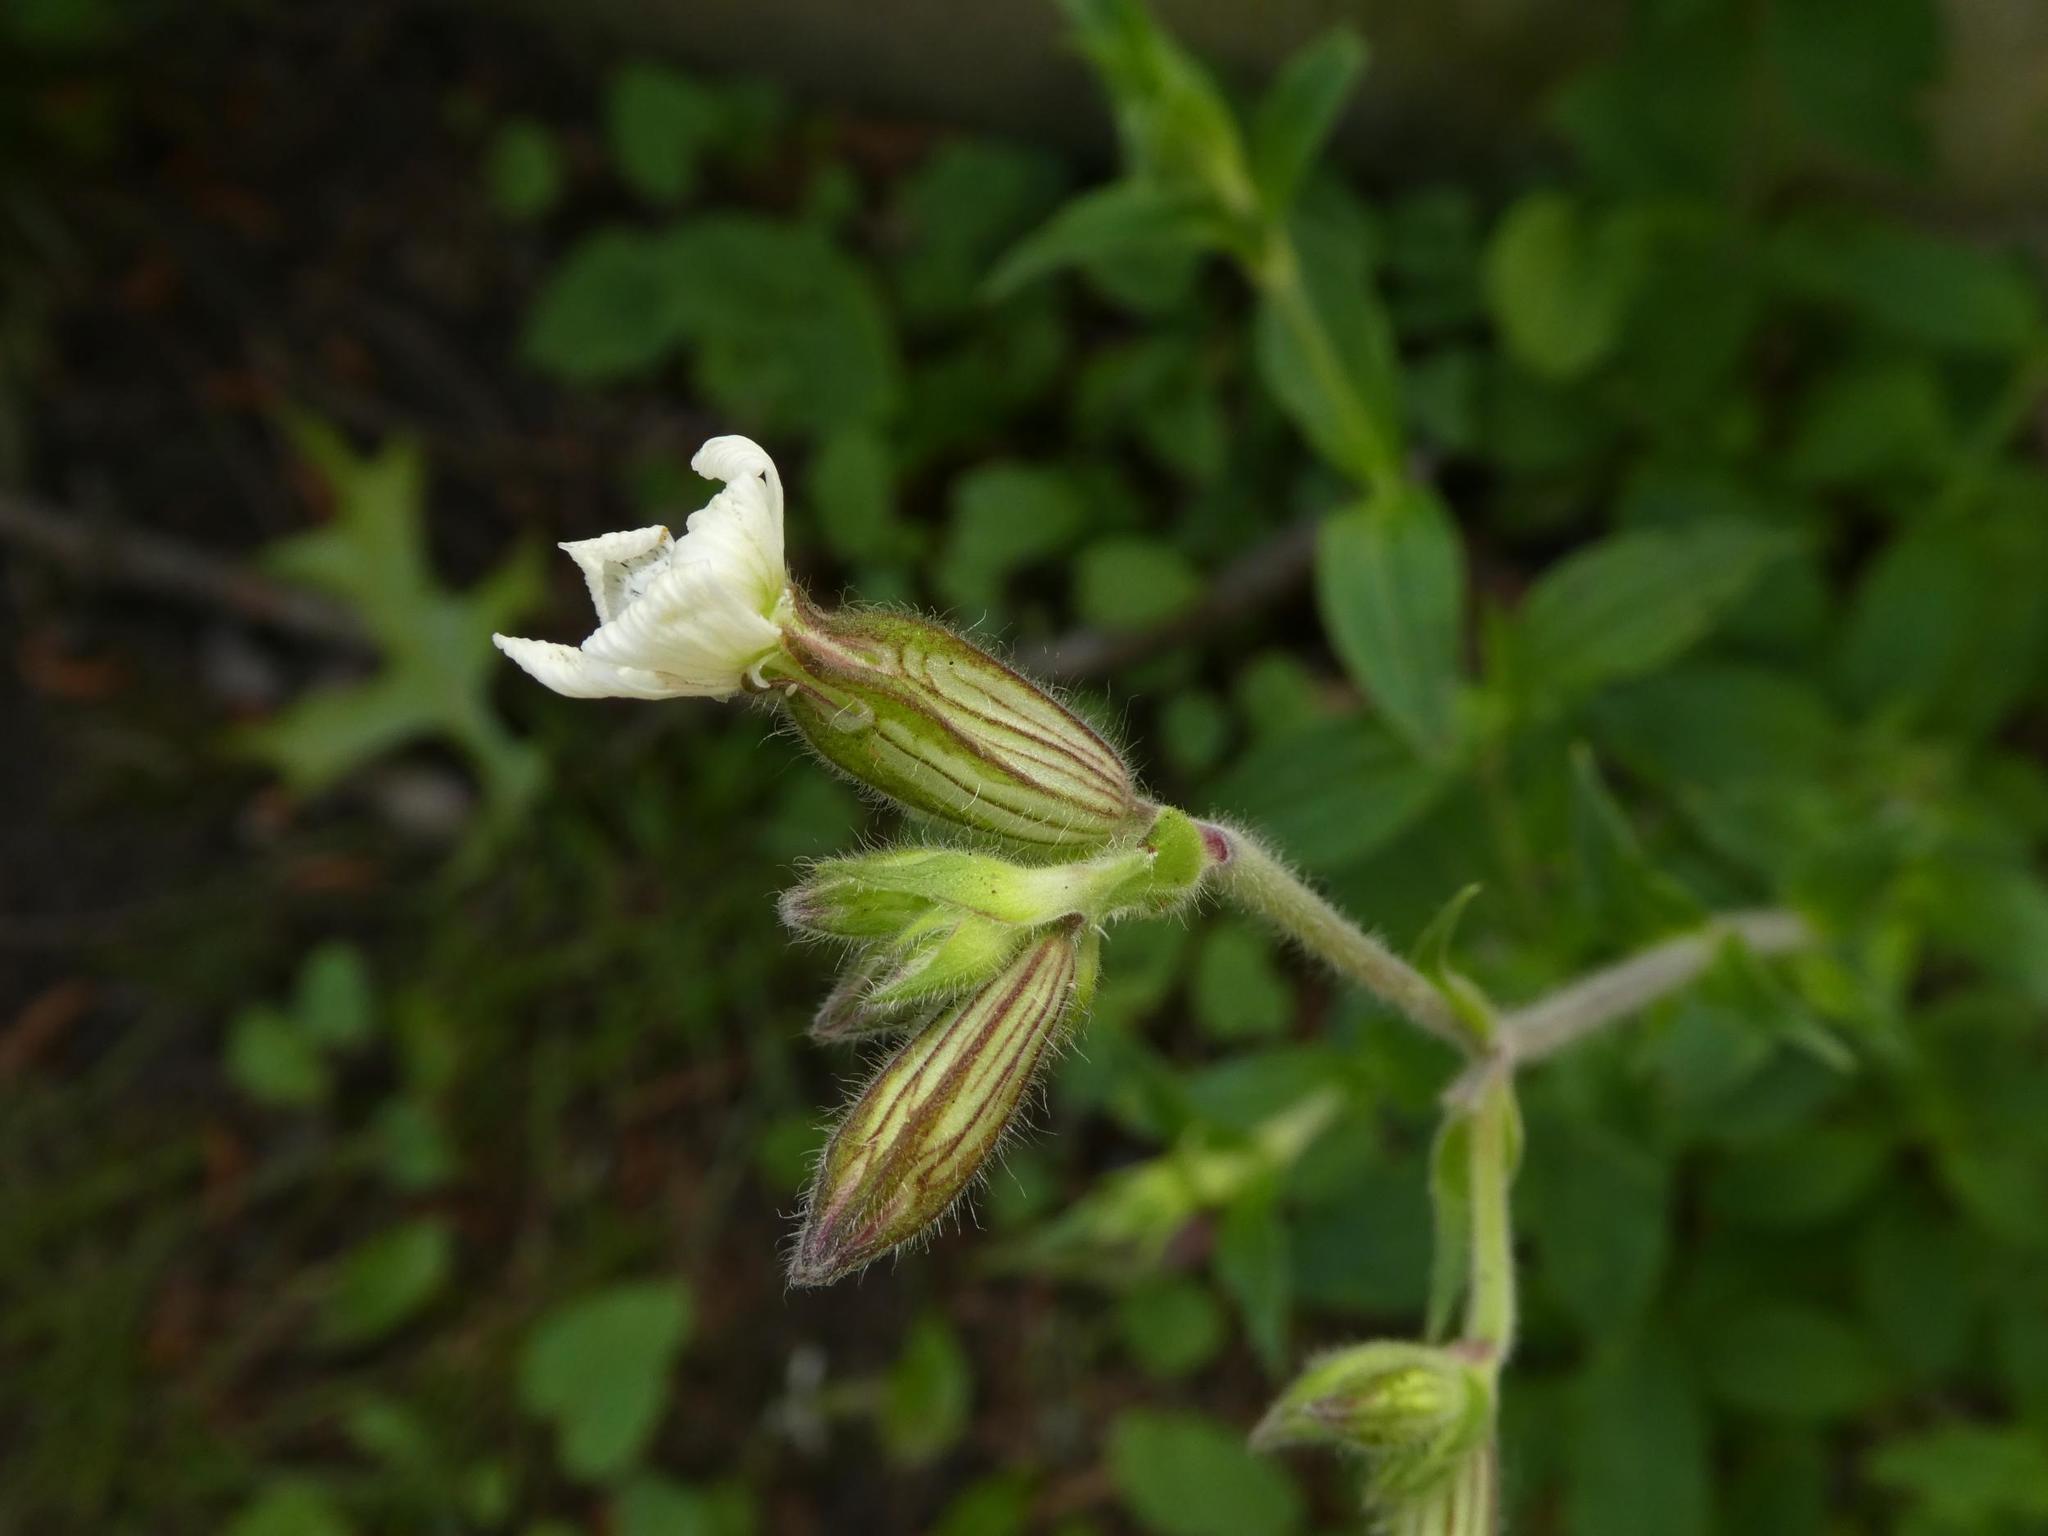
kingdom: Plantae
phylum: Tracheophyta
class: Magnoliopsida
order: Caryophyllales
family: Caryophyllaceae
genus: Silene
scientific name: Silene latifolia
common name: White campion
